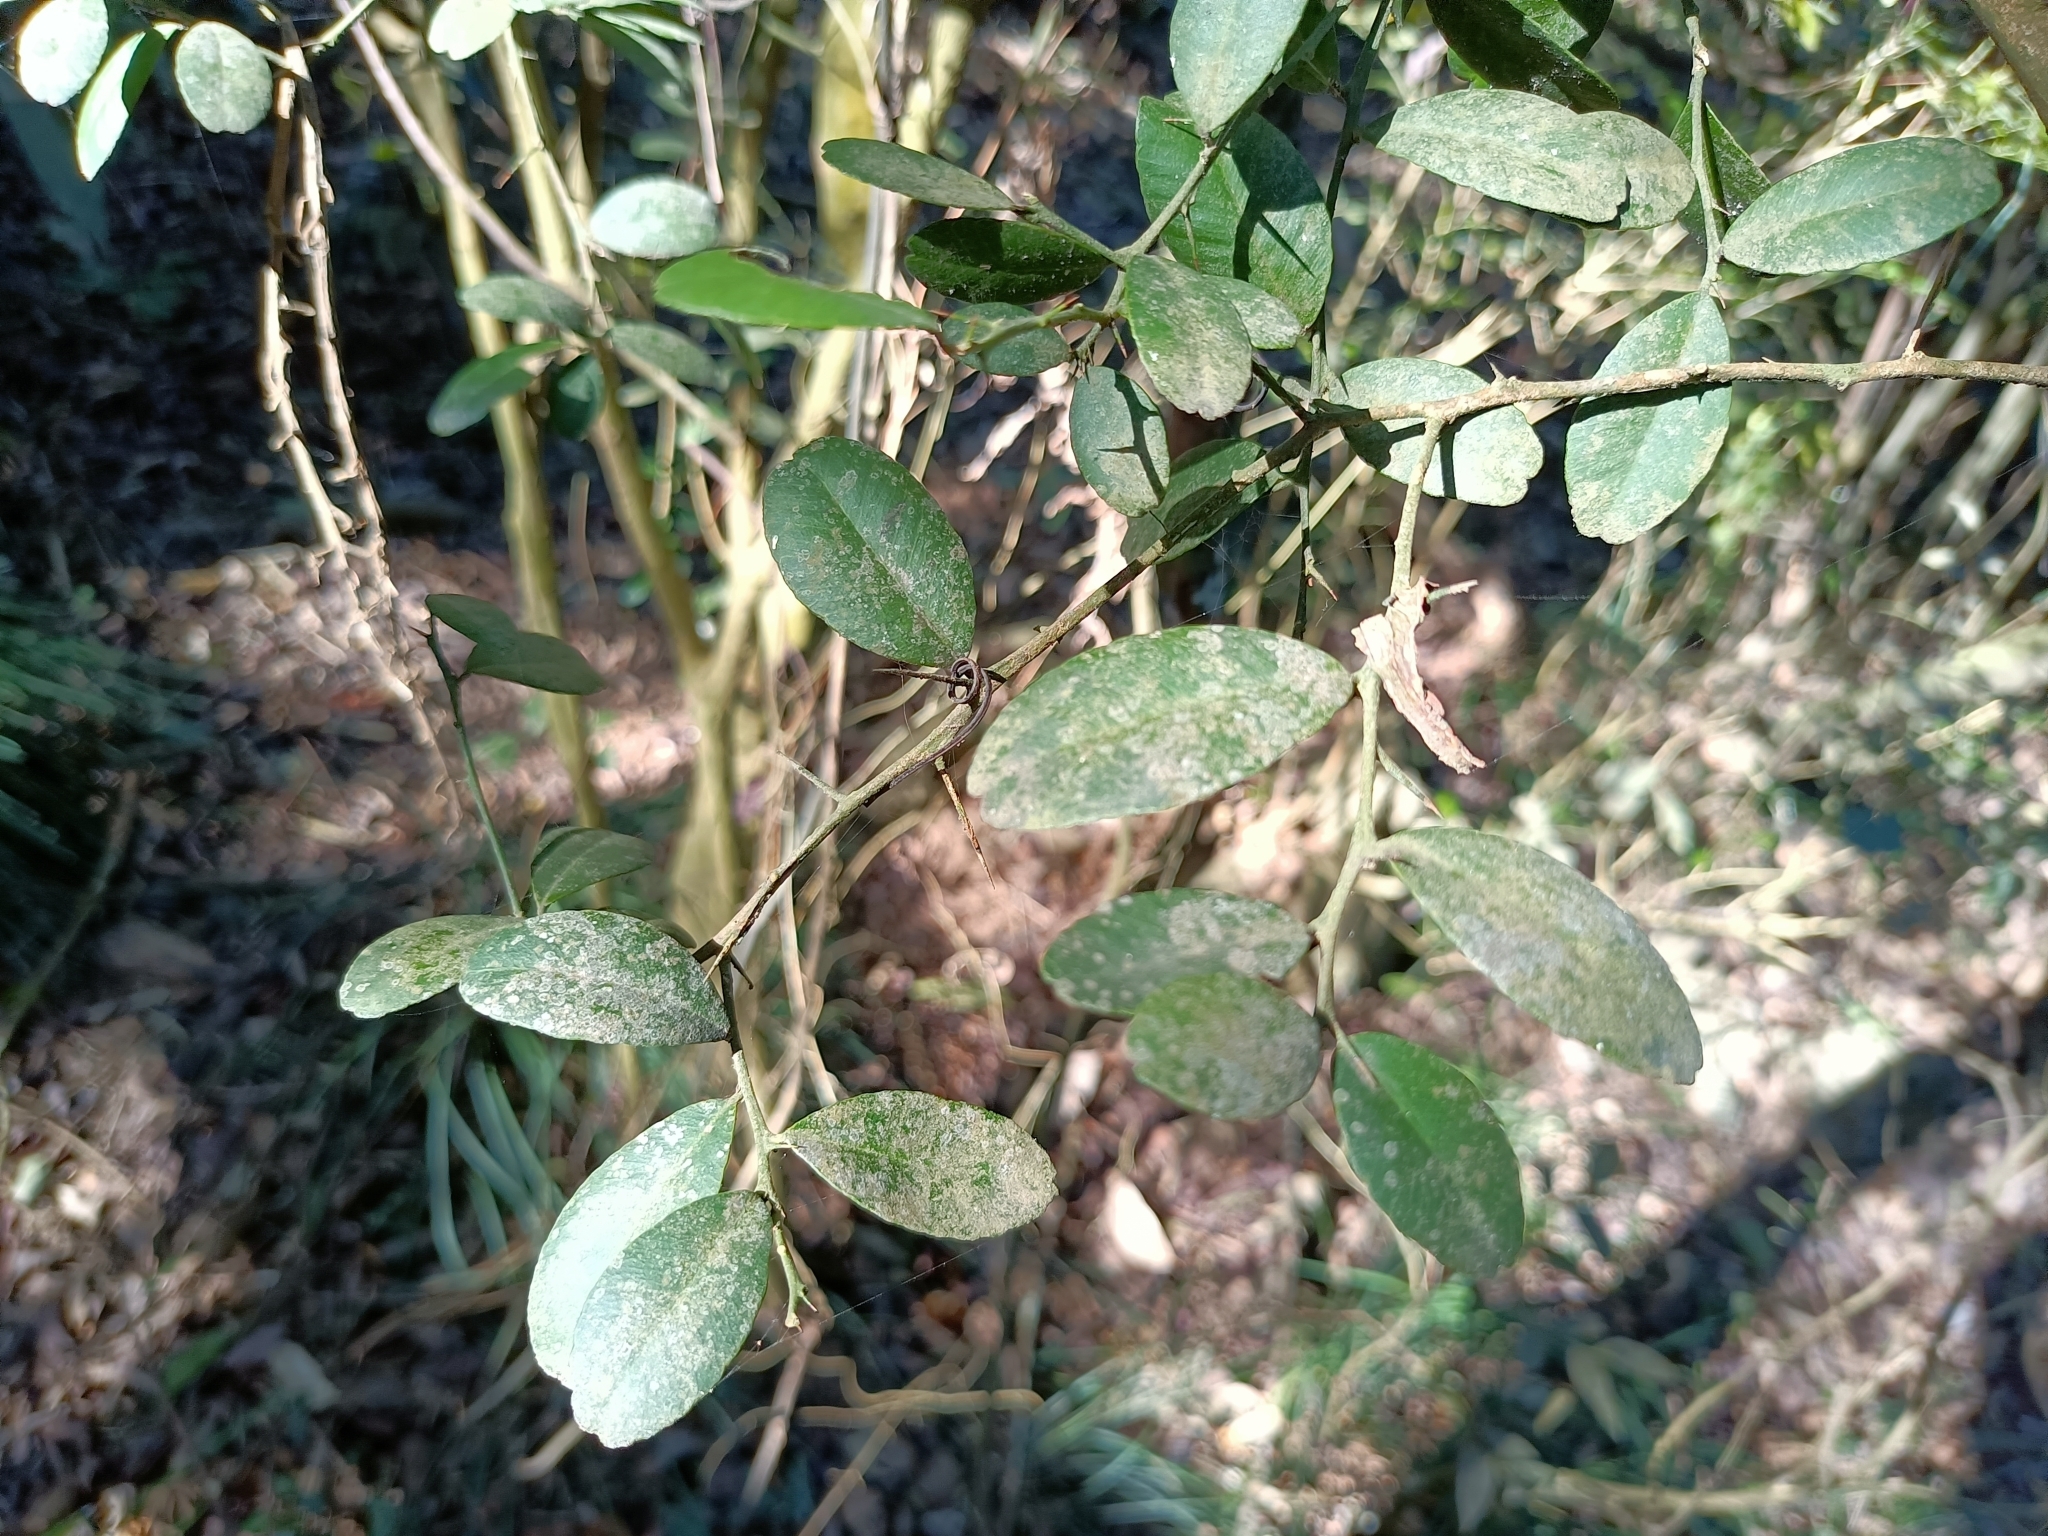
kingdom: Plantae
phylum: Tracheophyta
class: Magnoliopsida
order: Sapindales
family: Rutaceae
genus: Atalantia
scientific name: Atalantia buxifolia
